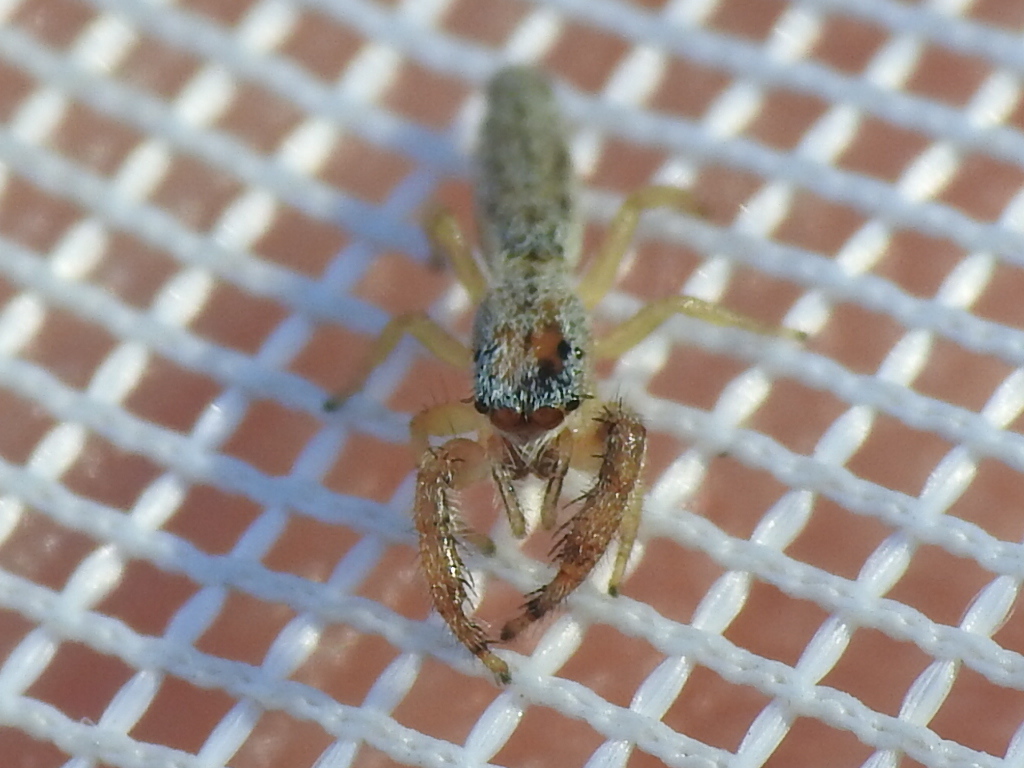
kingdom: Animalia
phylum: Arthropoda
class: Arachnida
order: Araneae
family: Salticidae
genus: Marpissa
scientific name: Marpissa pikei
